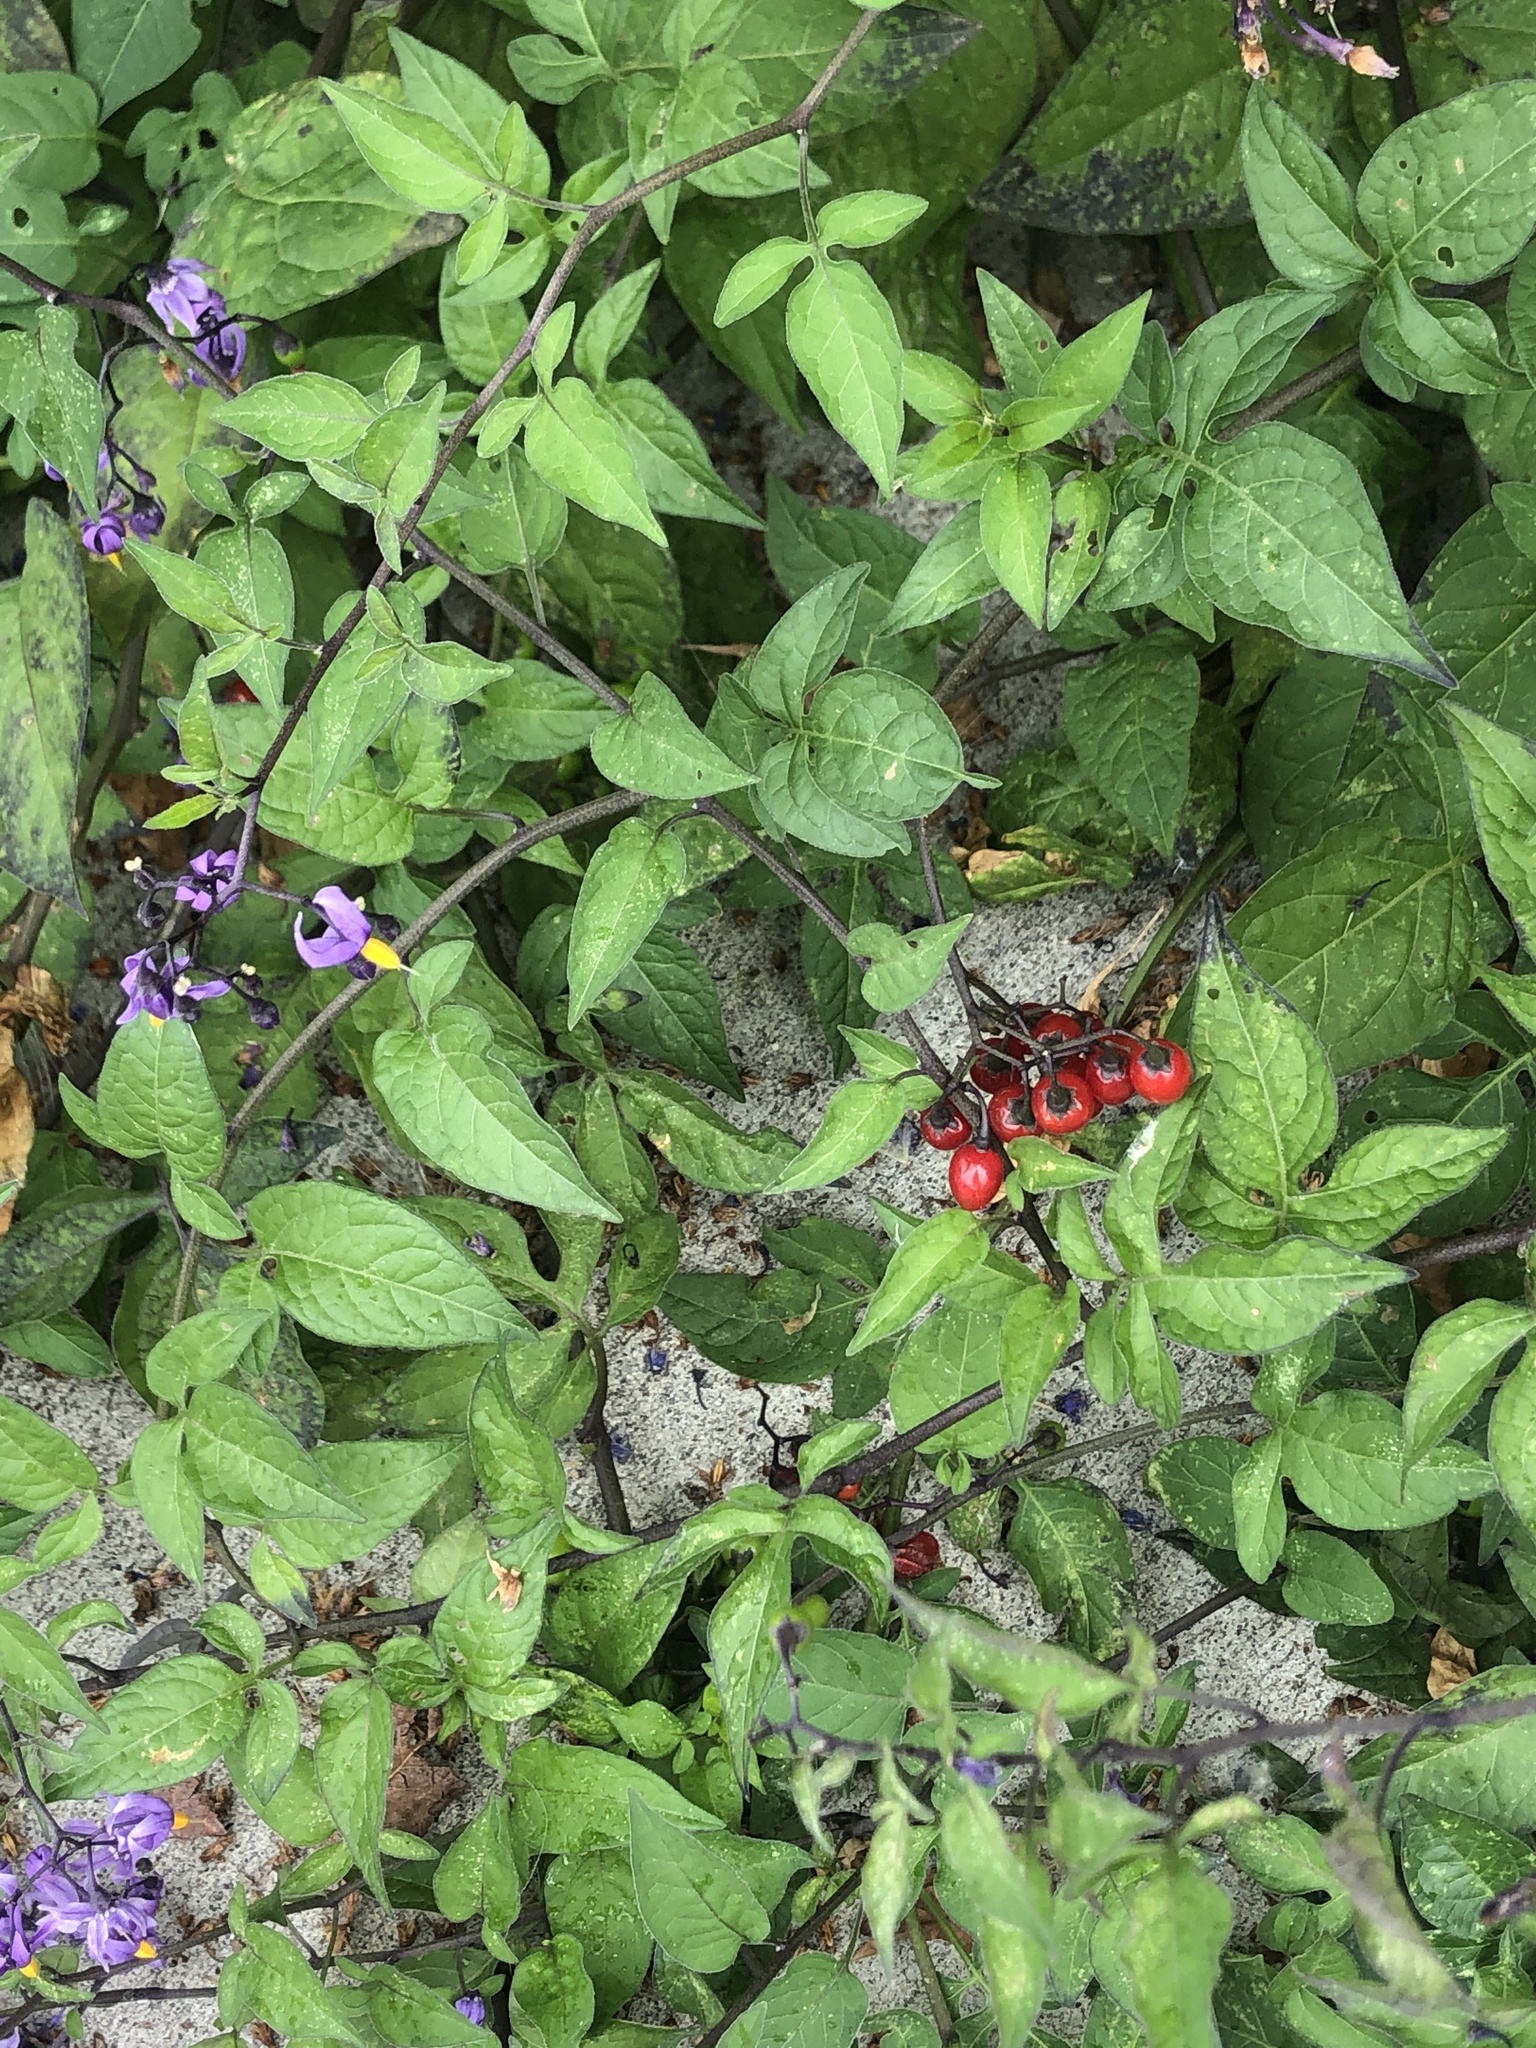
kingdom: Plantae
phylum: Tracheophyta
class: Magnoliopsida
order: Solanales
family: Solanaceae
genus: Solanum
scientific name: Solanum dulcamara
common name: Climbing nightshade
